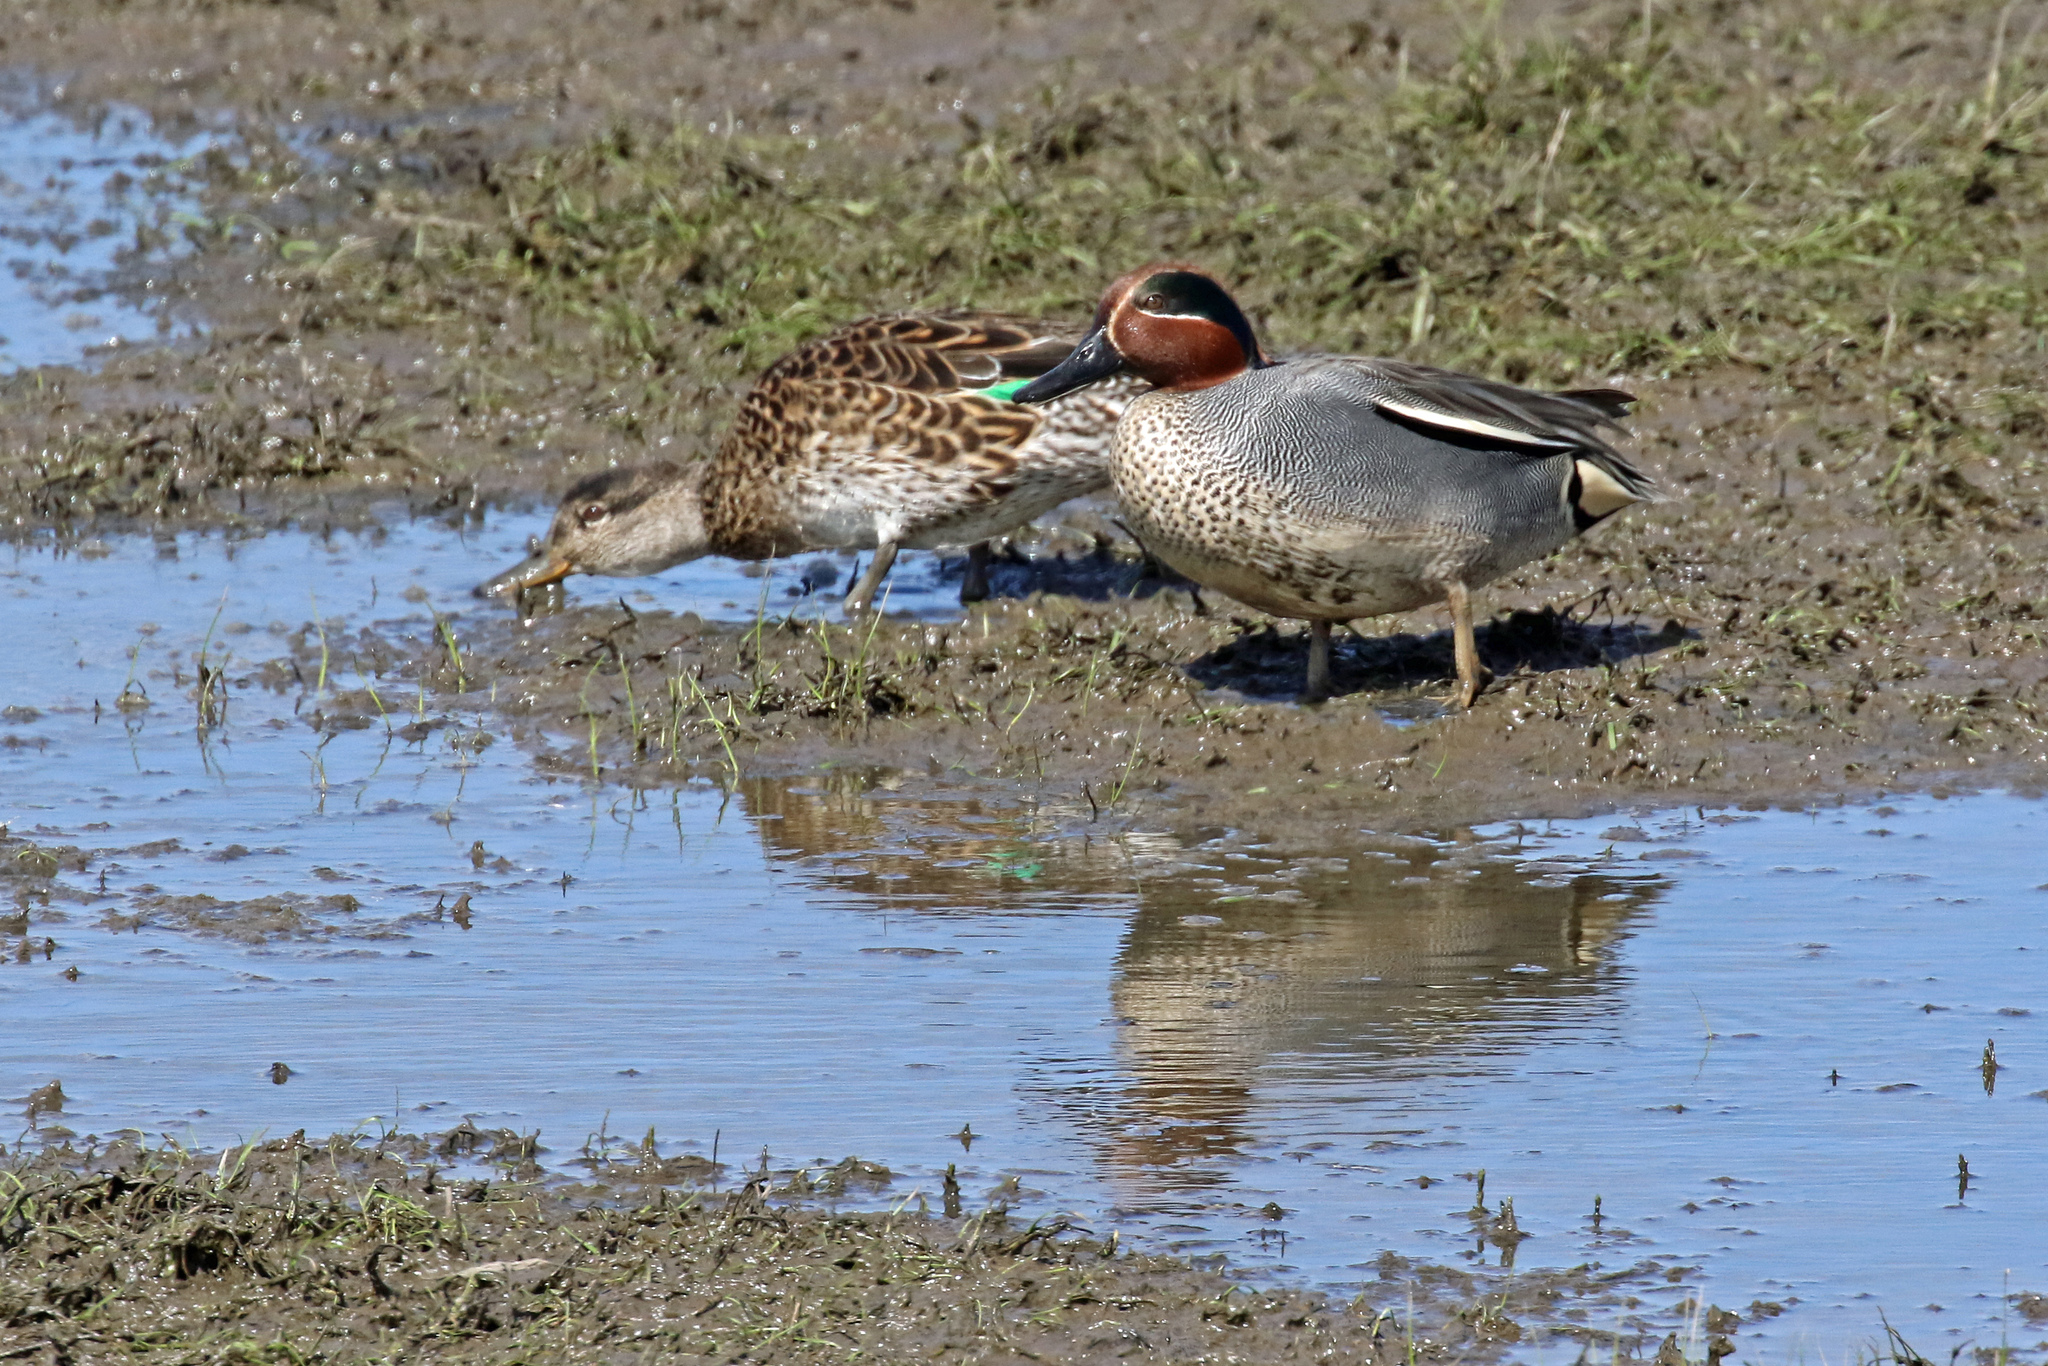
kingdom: Animalia
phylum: Chordata
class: Aves
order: Anseriformes
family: Anatidae
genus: Anas
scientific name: Anas crecca
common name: Eurasian teal
